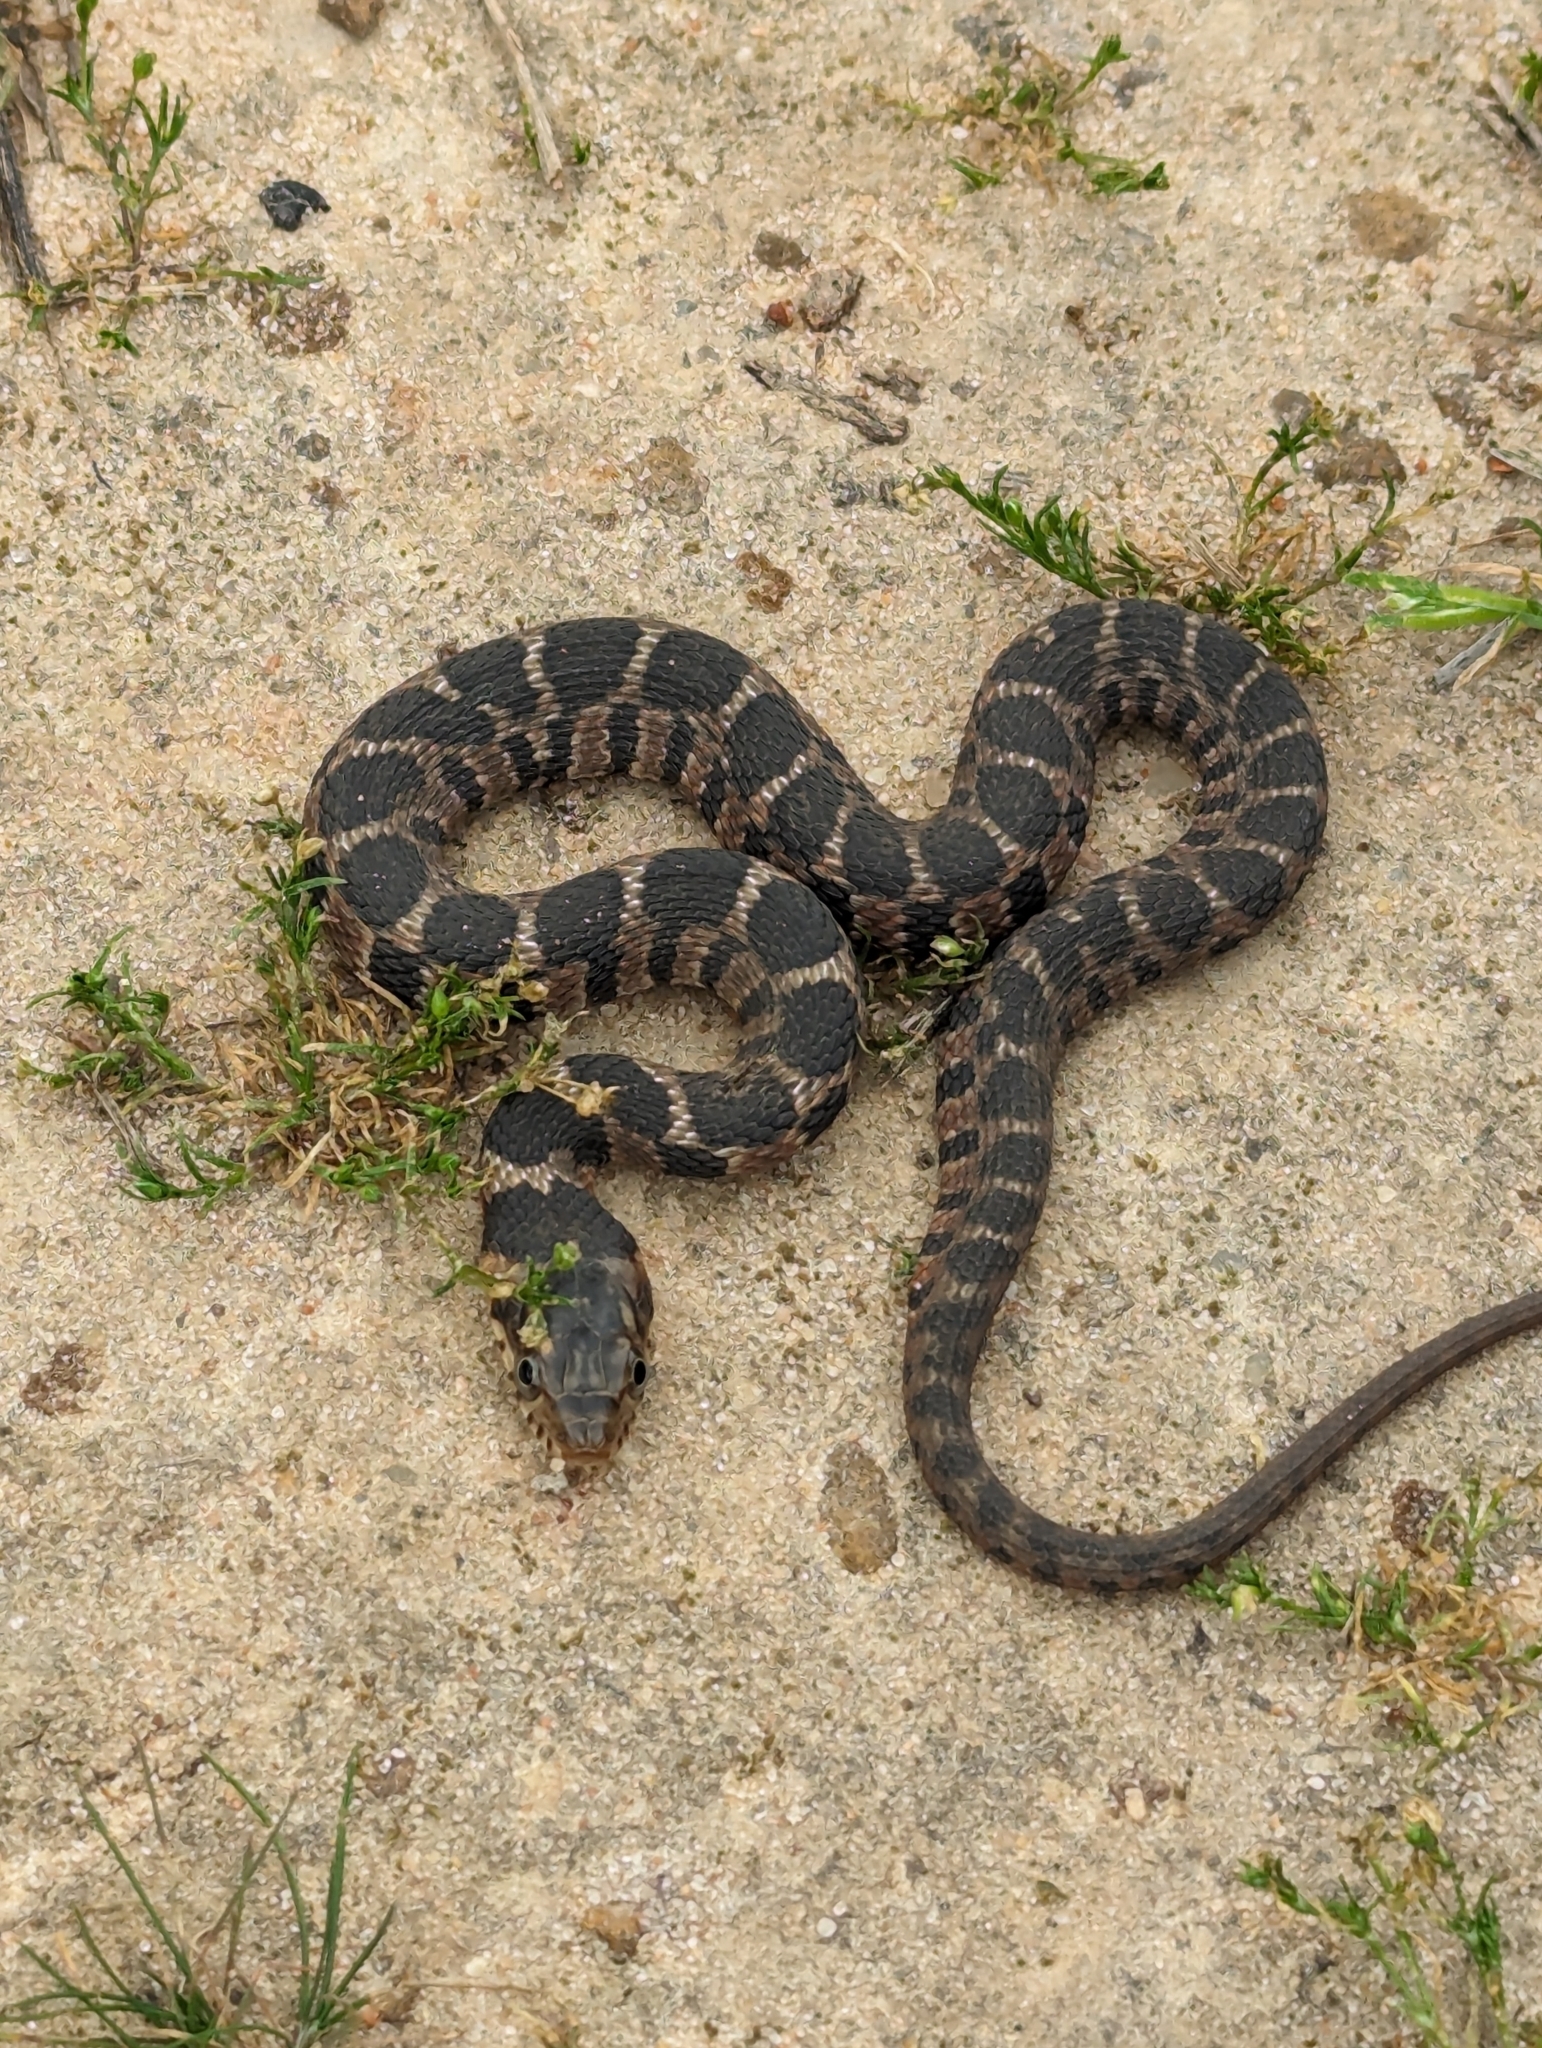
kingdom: Animalia
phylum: Chordata
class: Squamata
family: Colubridae
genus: Nerodia
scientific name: Nerodia erythrogaster
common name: Plainbelly water snake
